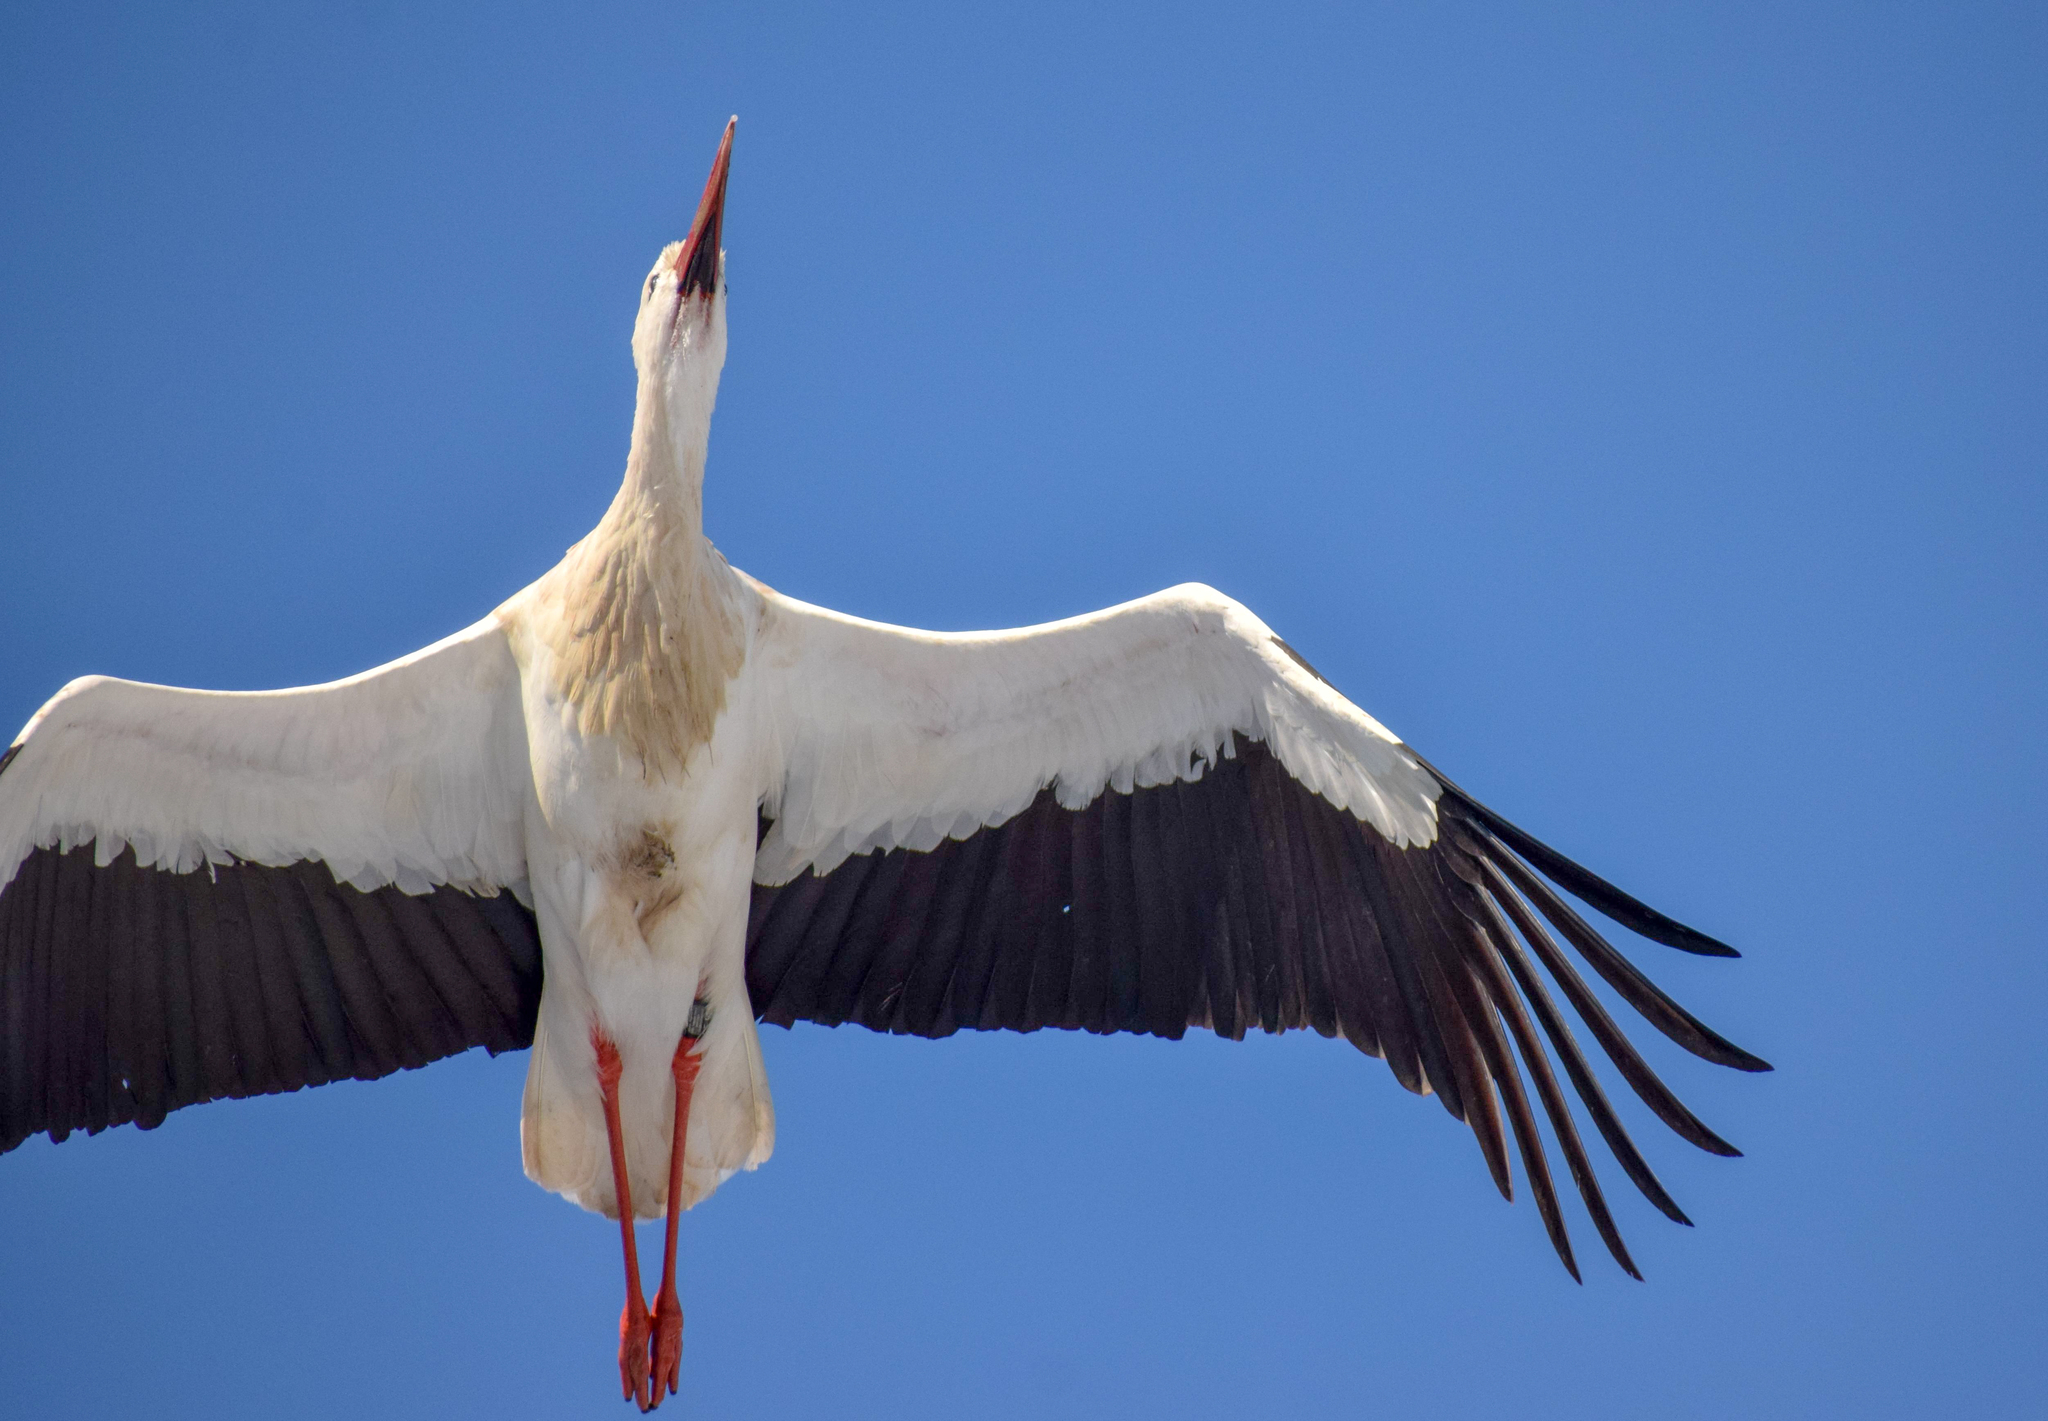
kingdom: Animalia
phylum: Chordata
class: Aves
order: Ciconiiformes
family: Ciconiidae
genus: Ciconia
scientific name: Ciconia ciconia
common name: White stork
